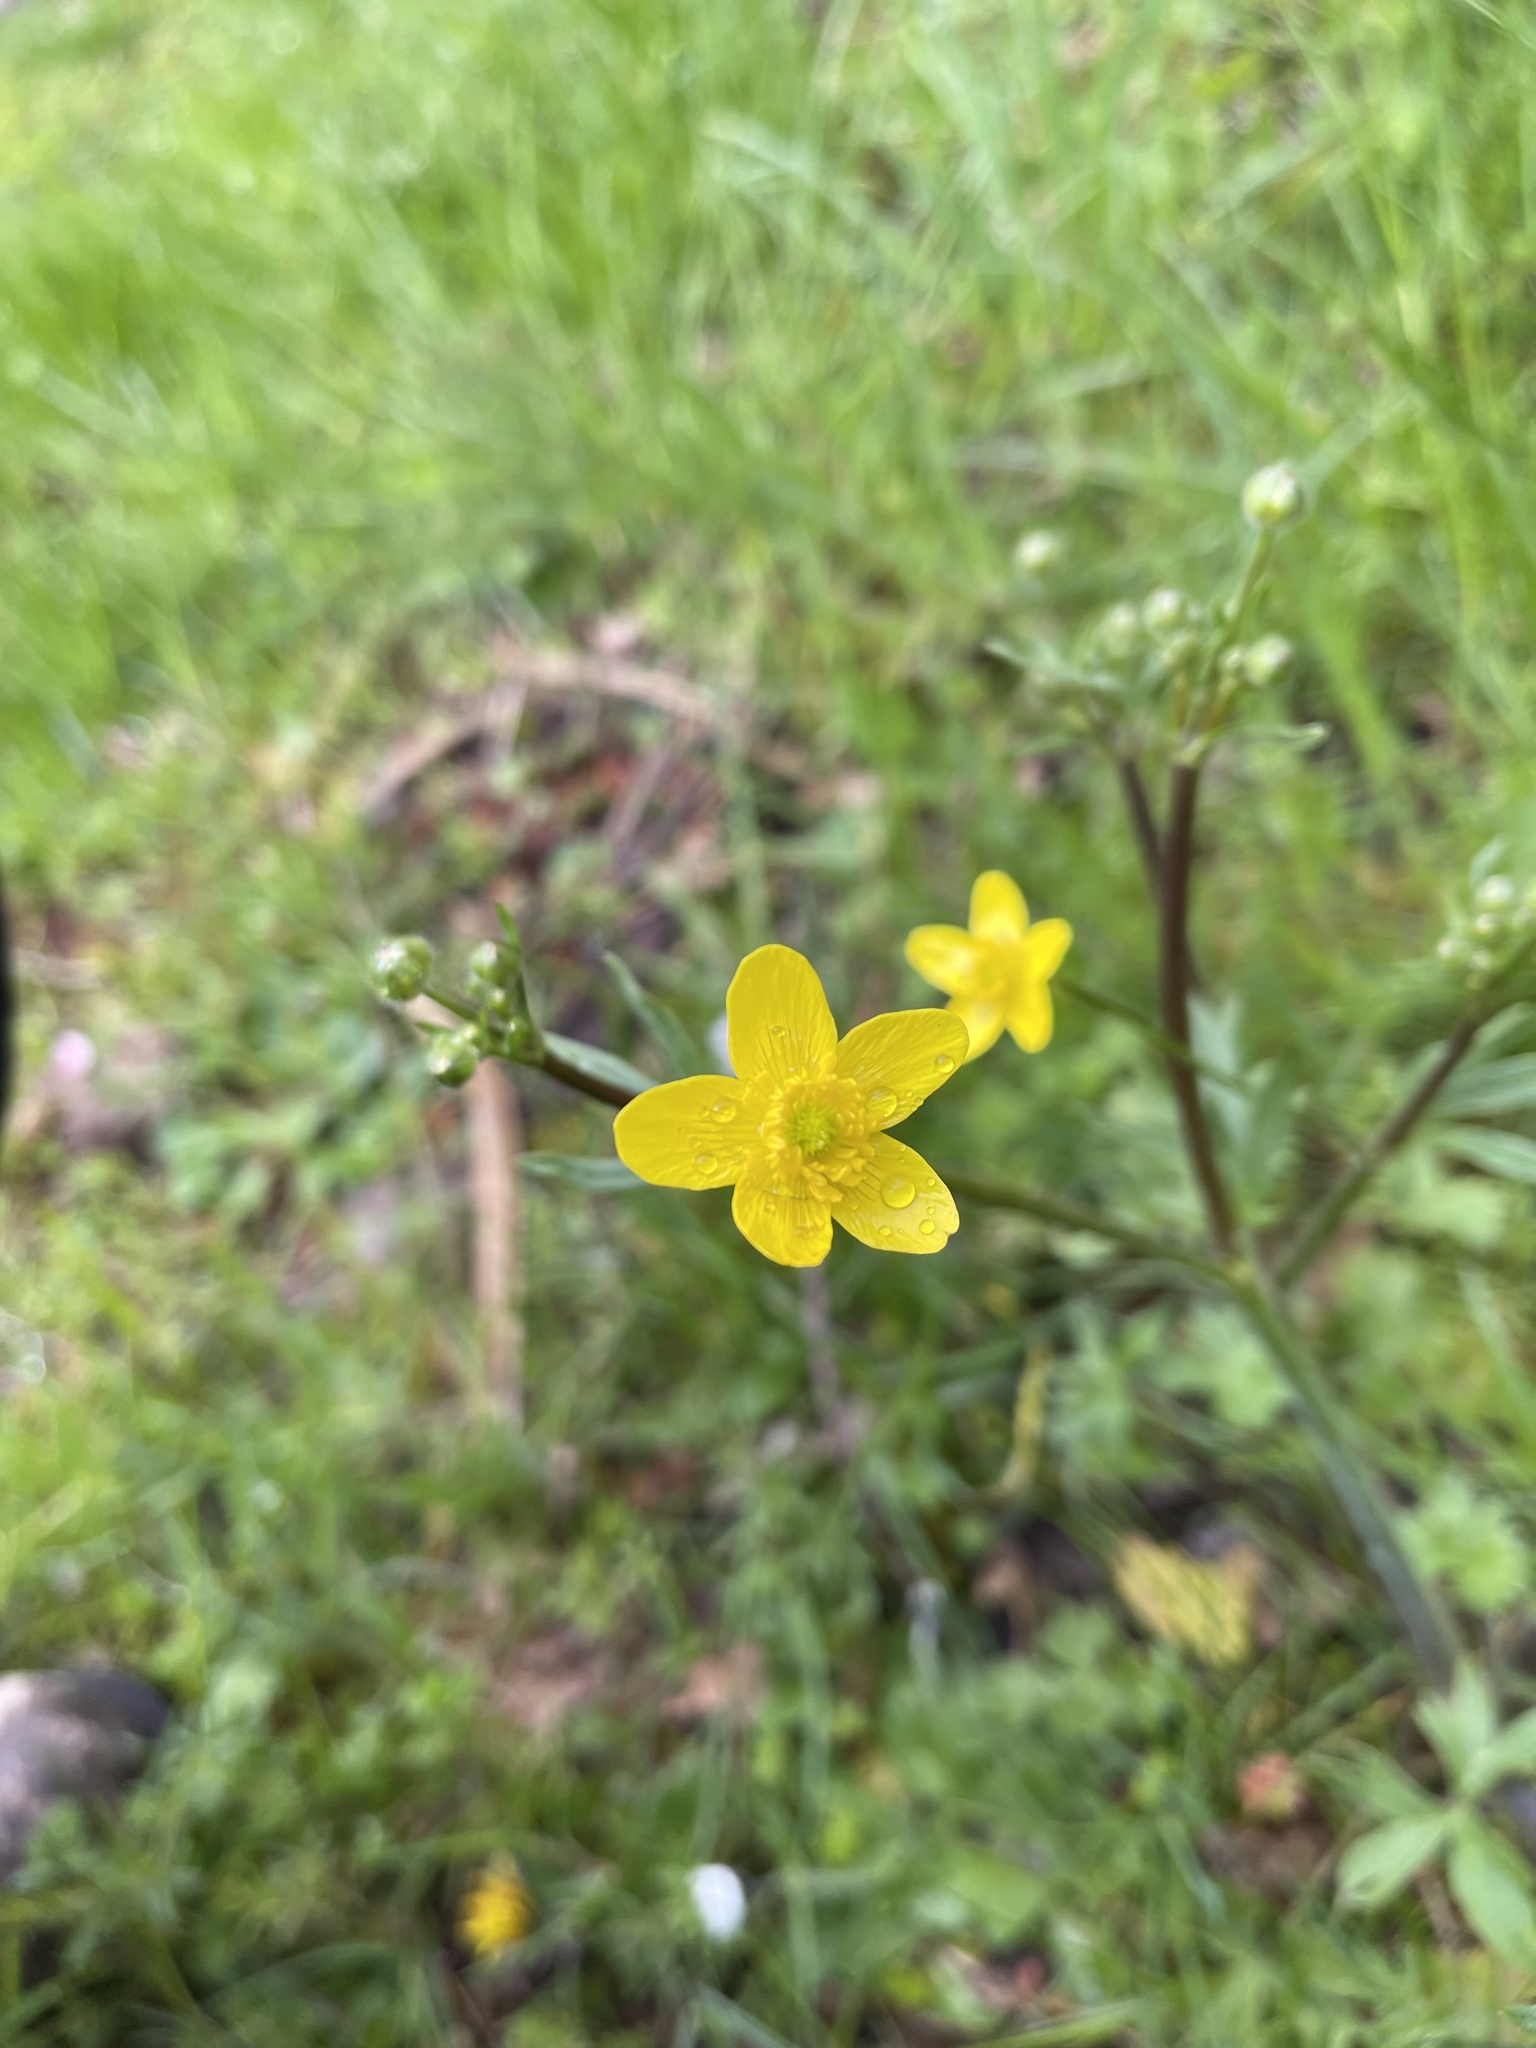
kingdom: Plantae
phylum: Tracheophyta
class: Magnoliopsida
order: Ranunculales
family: Ranunculaceae
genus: Ranunculus
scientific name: Ranunculus occidentalis
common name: Western buttercup
